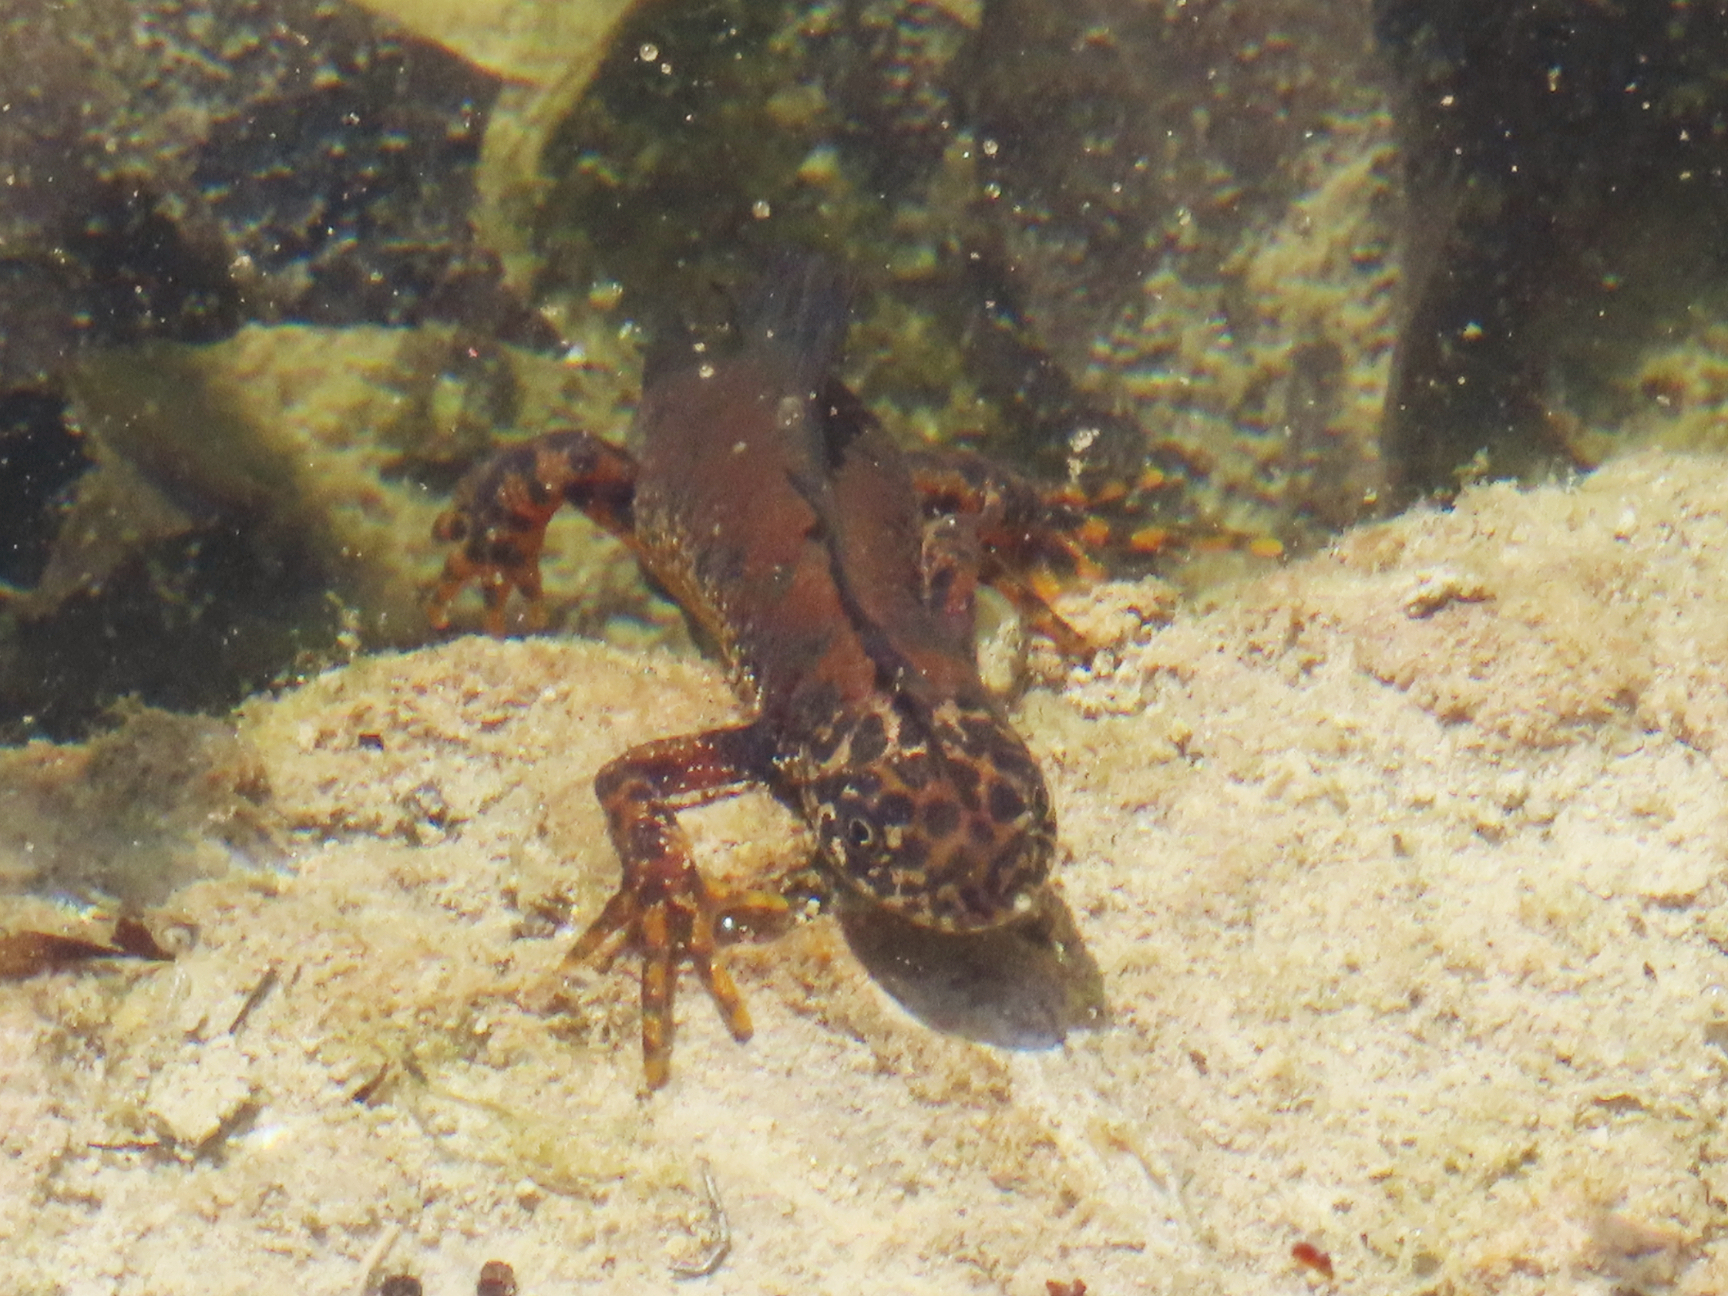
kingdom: Animalia
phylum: Chordata
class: Amphibia
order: Caudata
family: Salamandridae
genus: Triturus
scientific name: Triturus cristatus
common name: Crested newt
